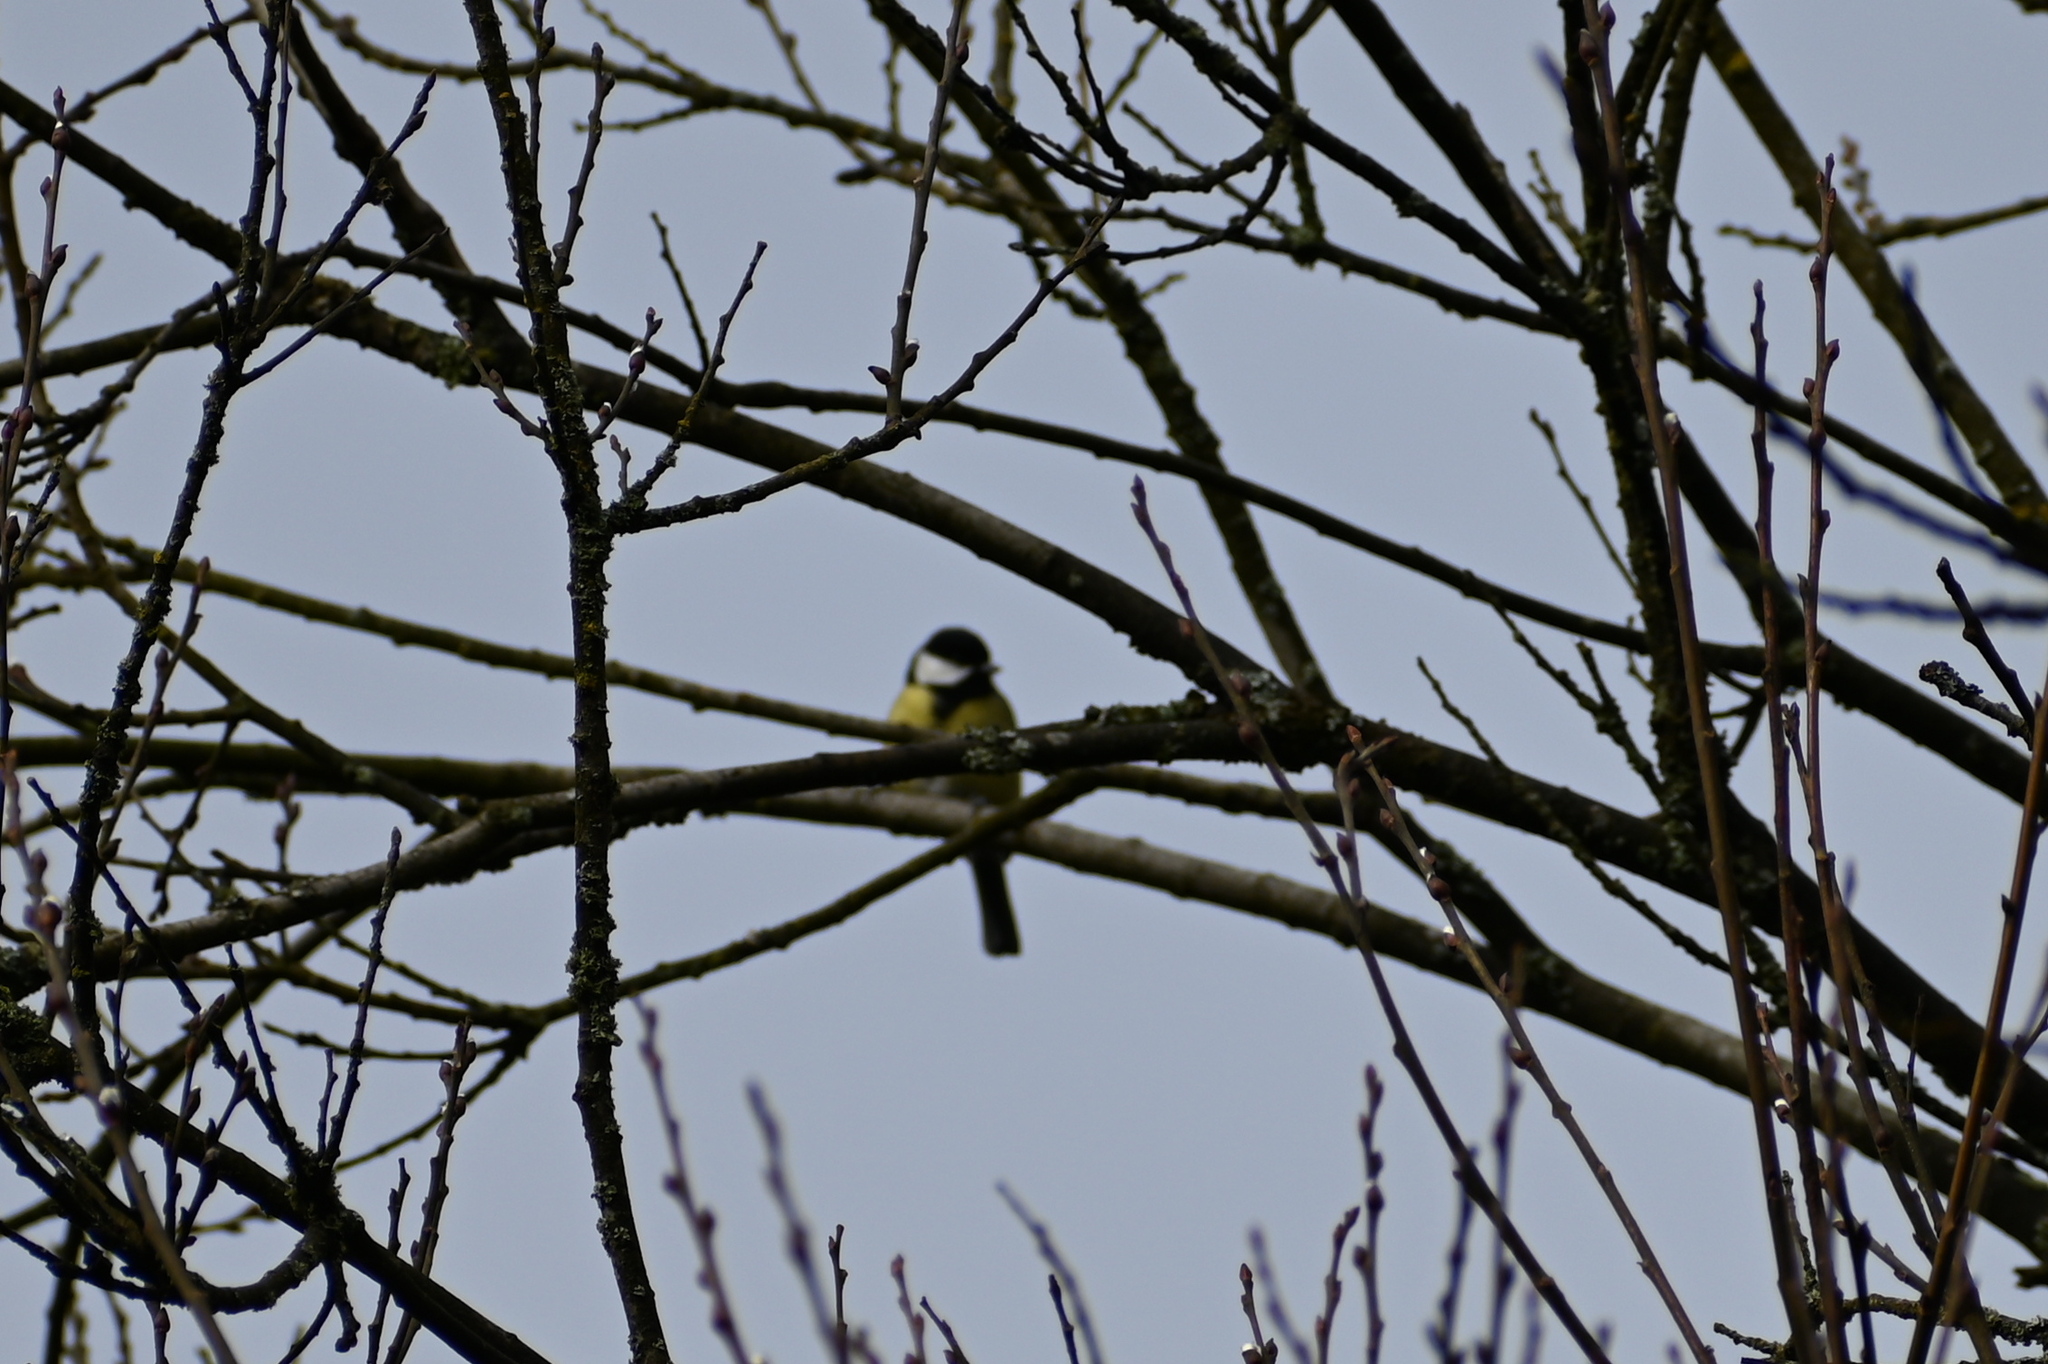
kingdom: Animalia
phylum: Chordata
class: Aves
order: Passeriformes
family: Paridae
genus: Parus
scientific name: Parus major
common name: Great tit
